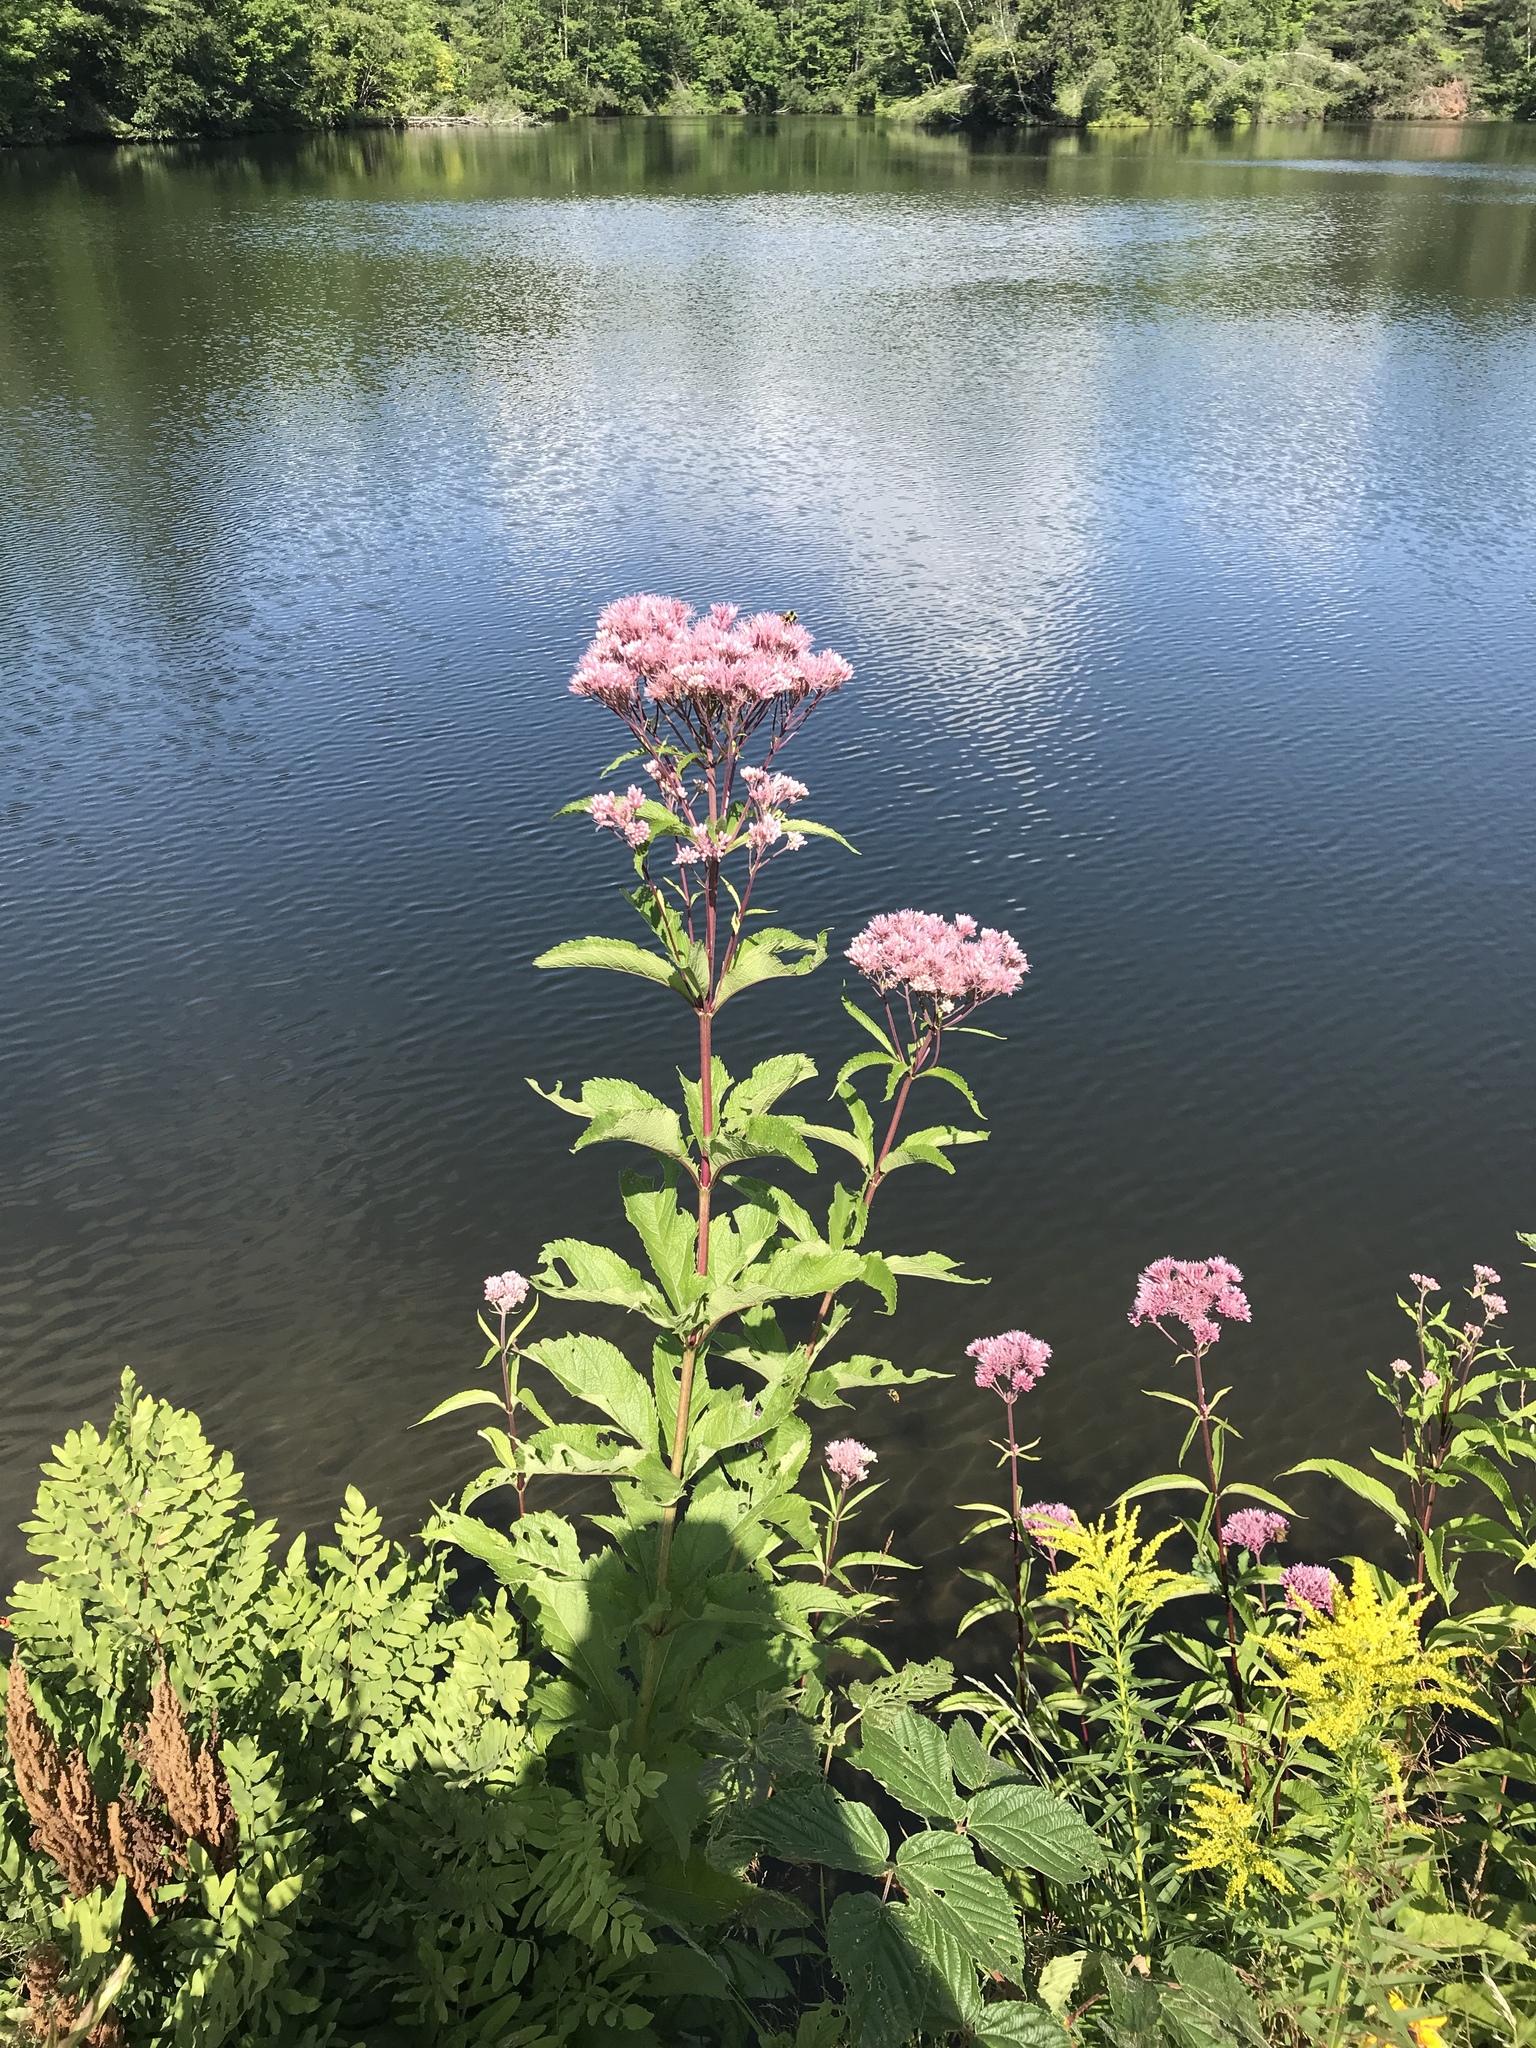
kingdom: Plantae
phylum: Tracheophyta
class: Magnoliopsida
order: Asterales
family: Asteraceae
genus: Eutrochium
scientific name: Eutrochium maculatum
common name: Spotted joe pye weed
